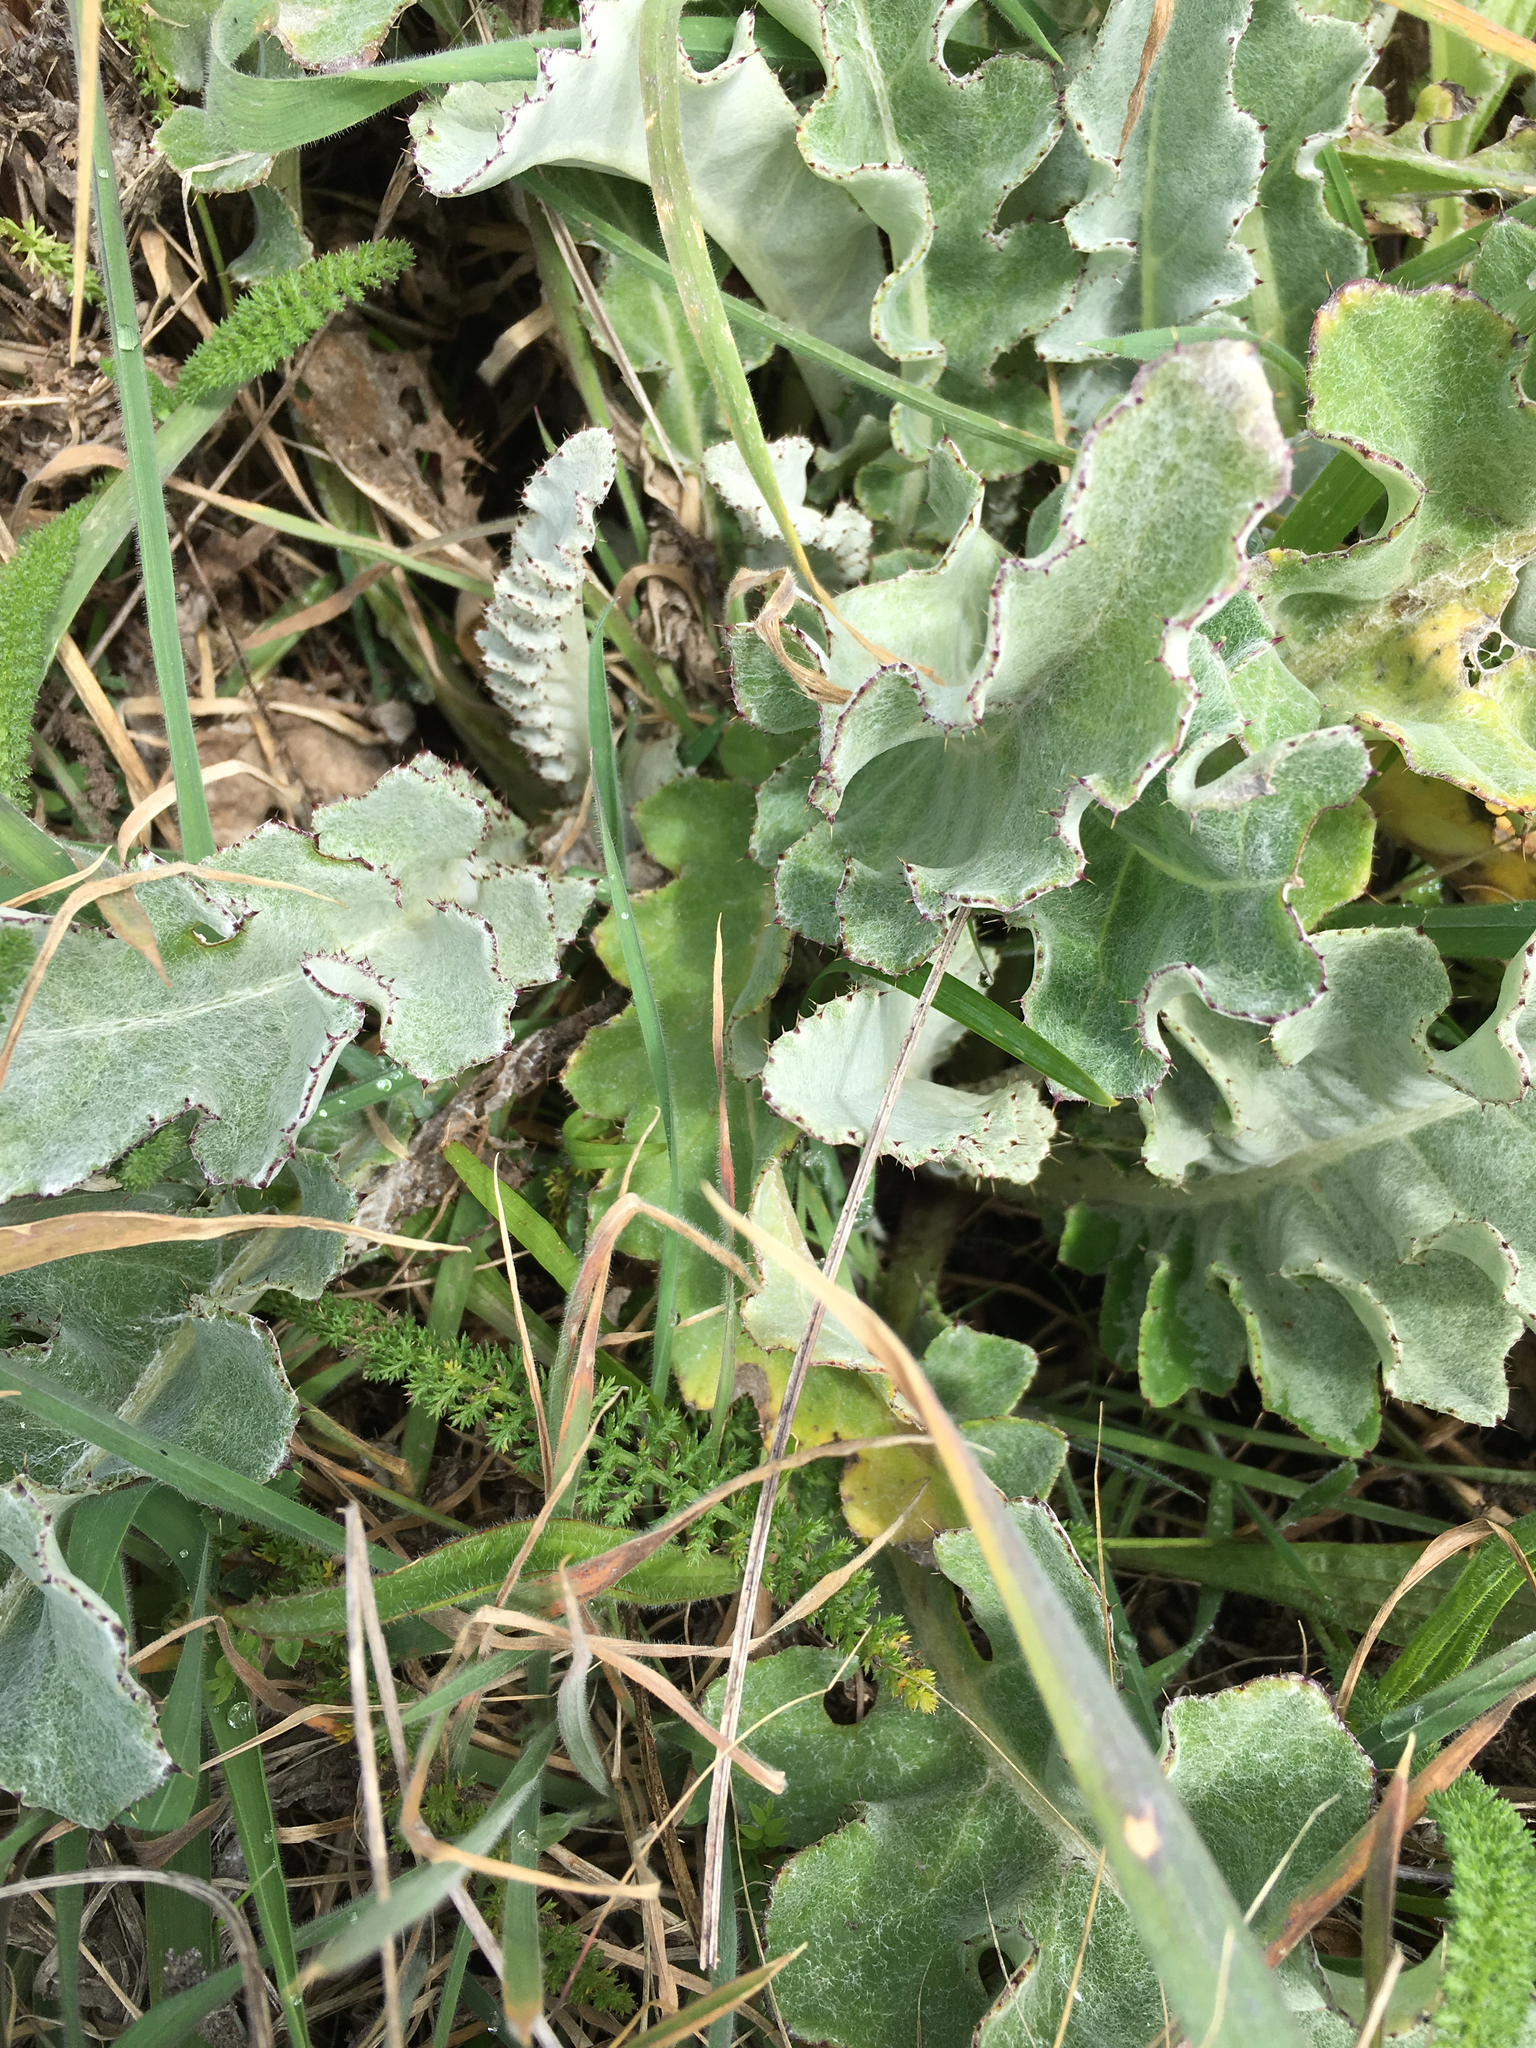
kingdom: Plantae
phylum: Tracheophyta
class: Magnoliopsida
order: Asterales
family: Asteraceae
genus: Cirsium
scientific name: Cirsium douglasii
